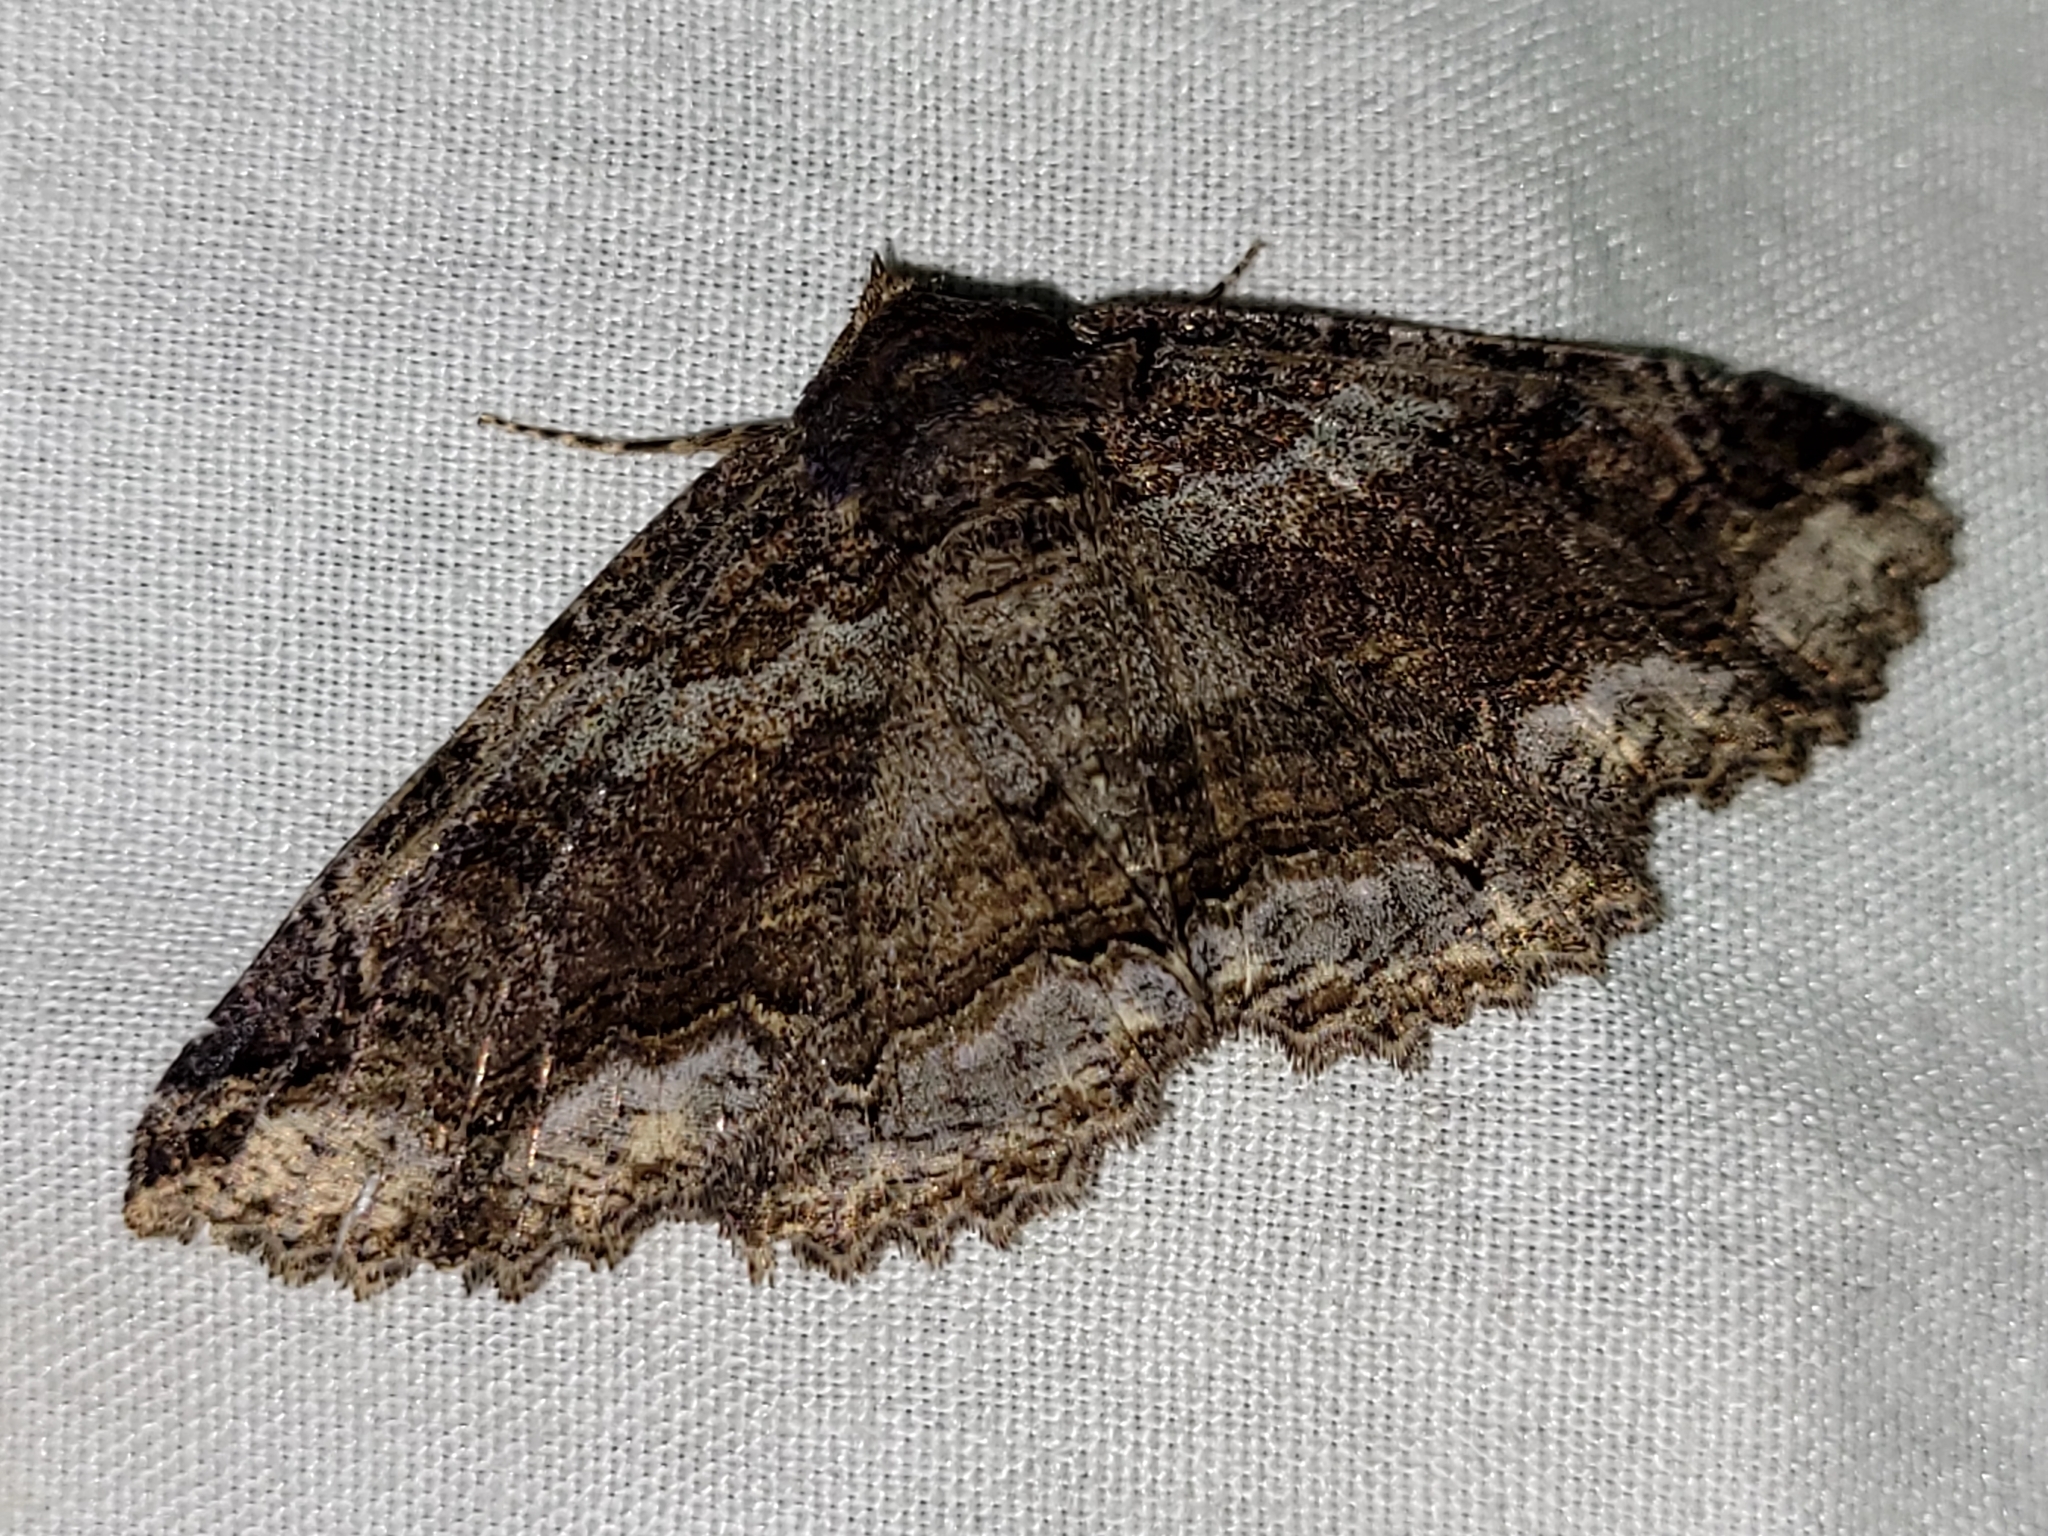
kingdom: Animalia
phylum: Arthropoda
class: Insecta
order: Lepidoptera
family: Erebidae
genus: Zale
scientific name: Zale minerea
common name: Colorful zale moth
